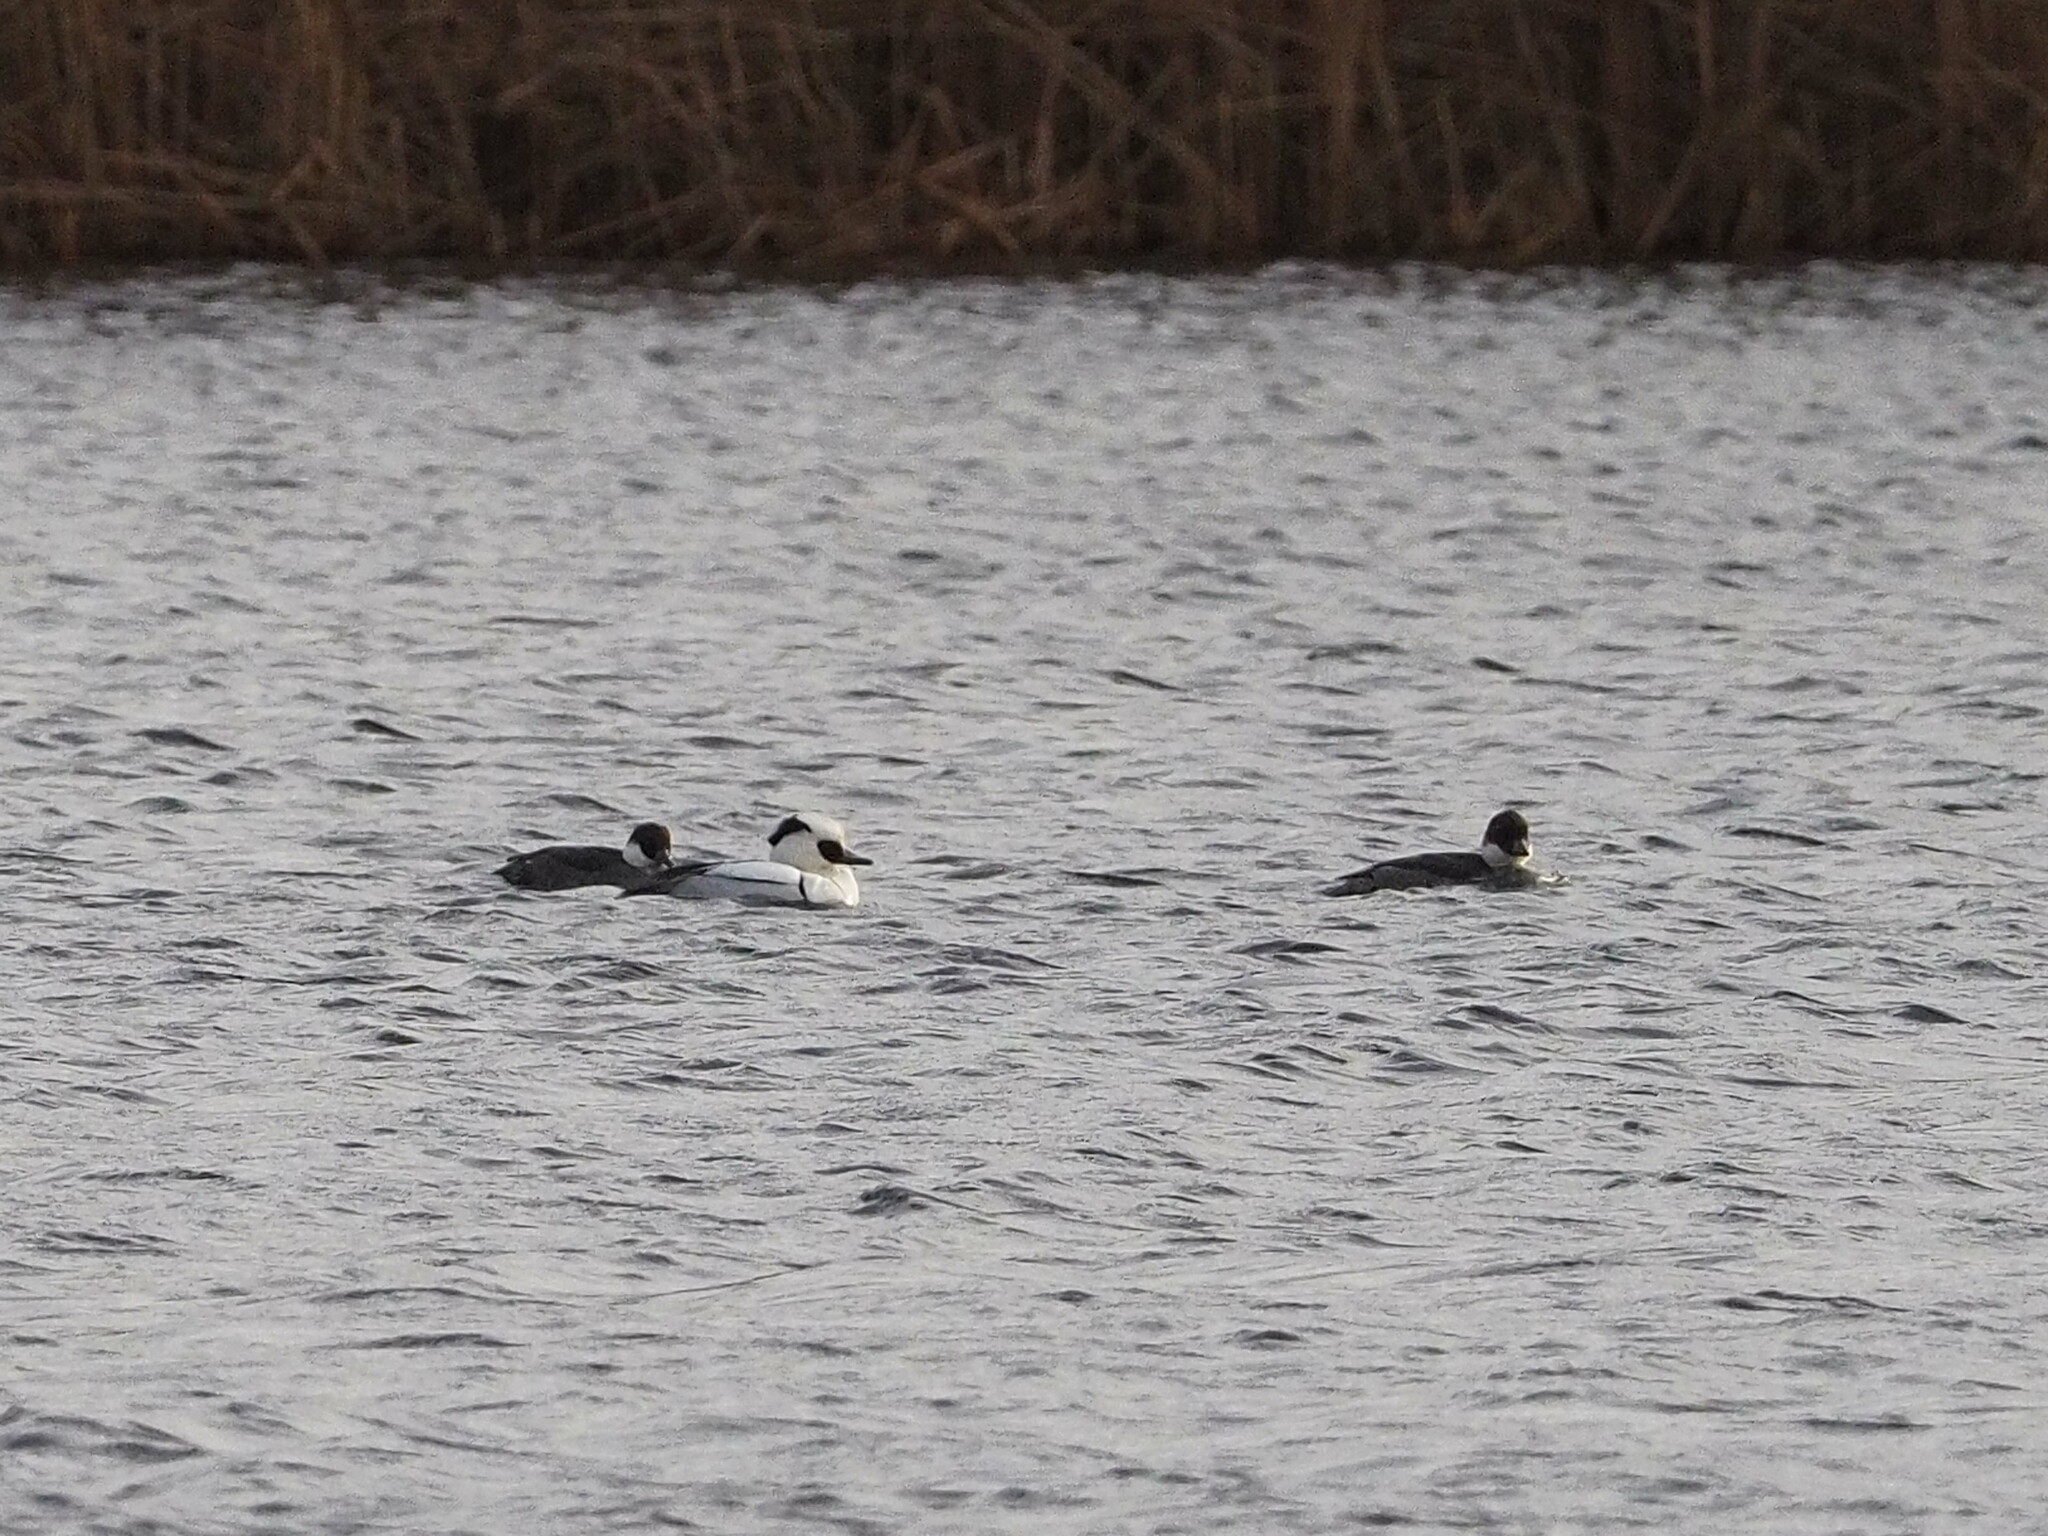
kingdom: Animalia
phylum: Chordata
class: Aves
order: Anseriformes
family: Anatidae
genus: Mergellus
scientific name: Mergellus albellus
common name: Smew
